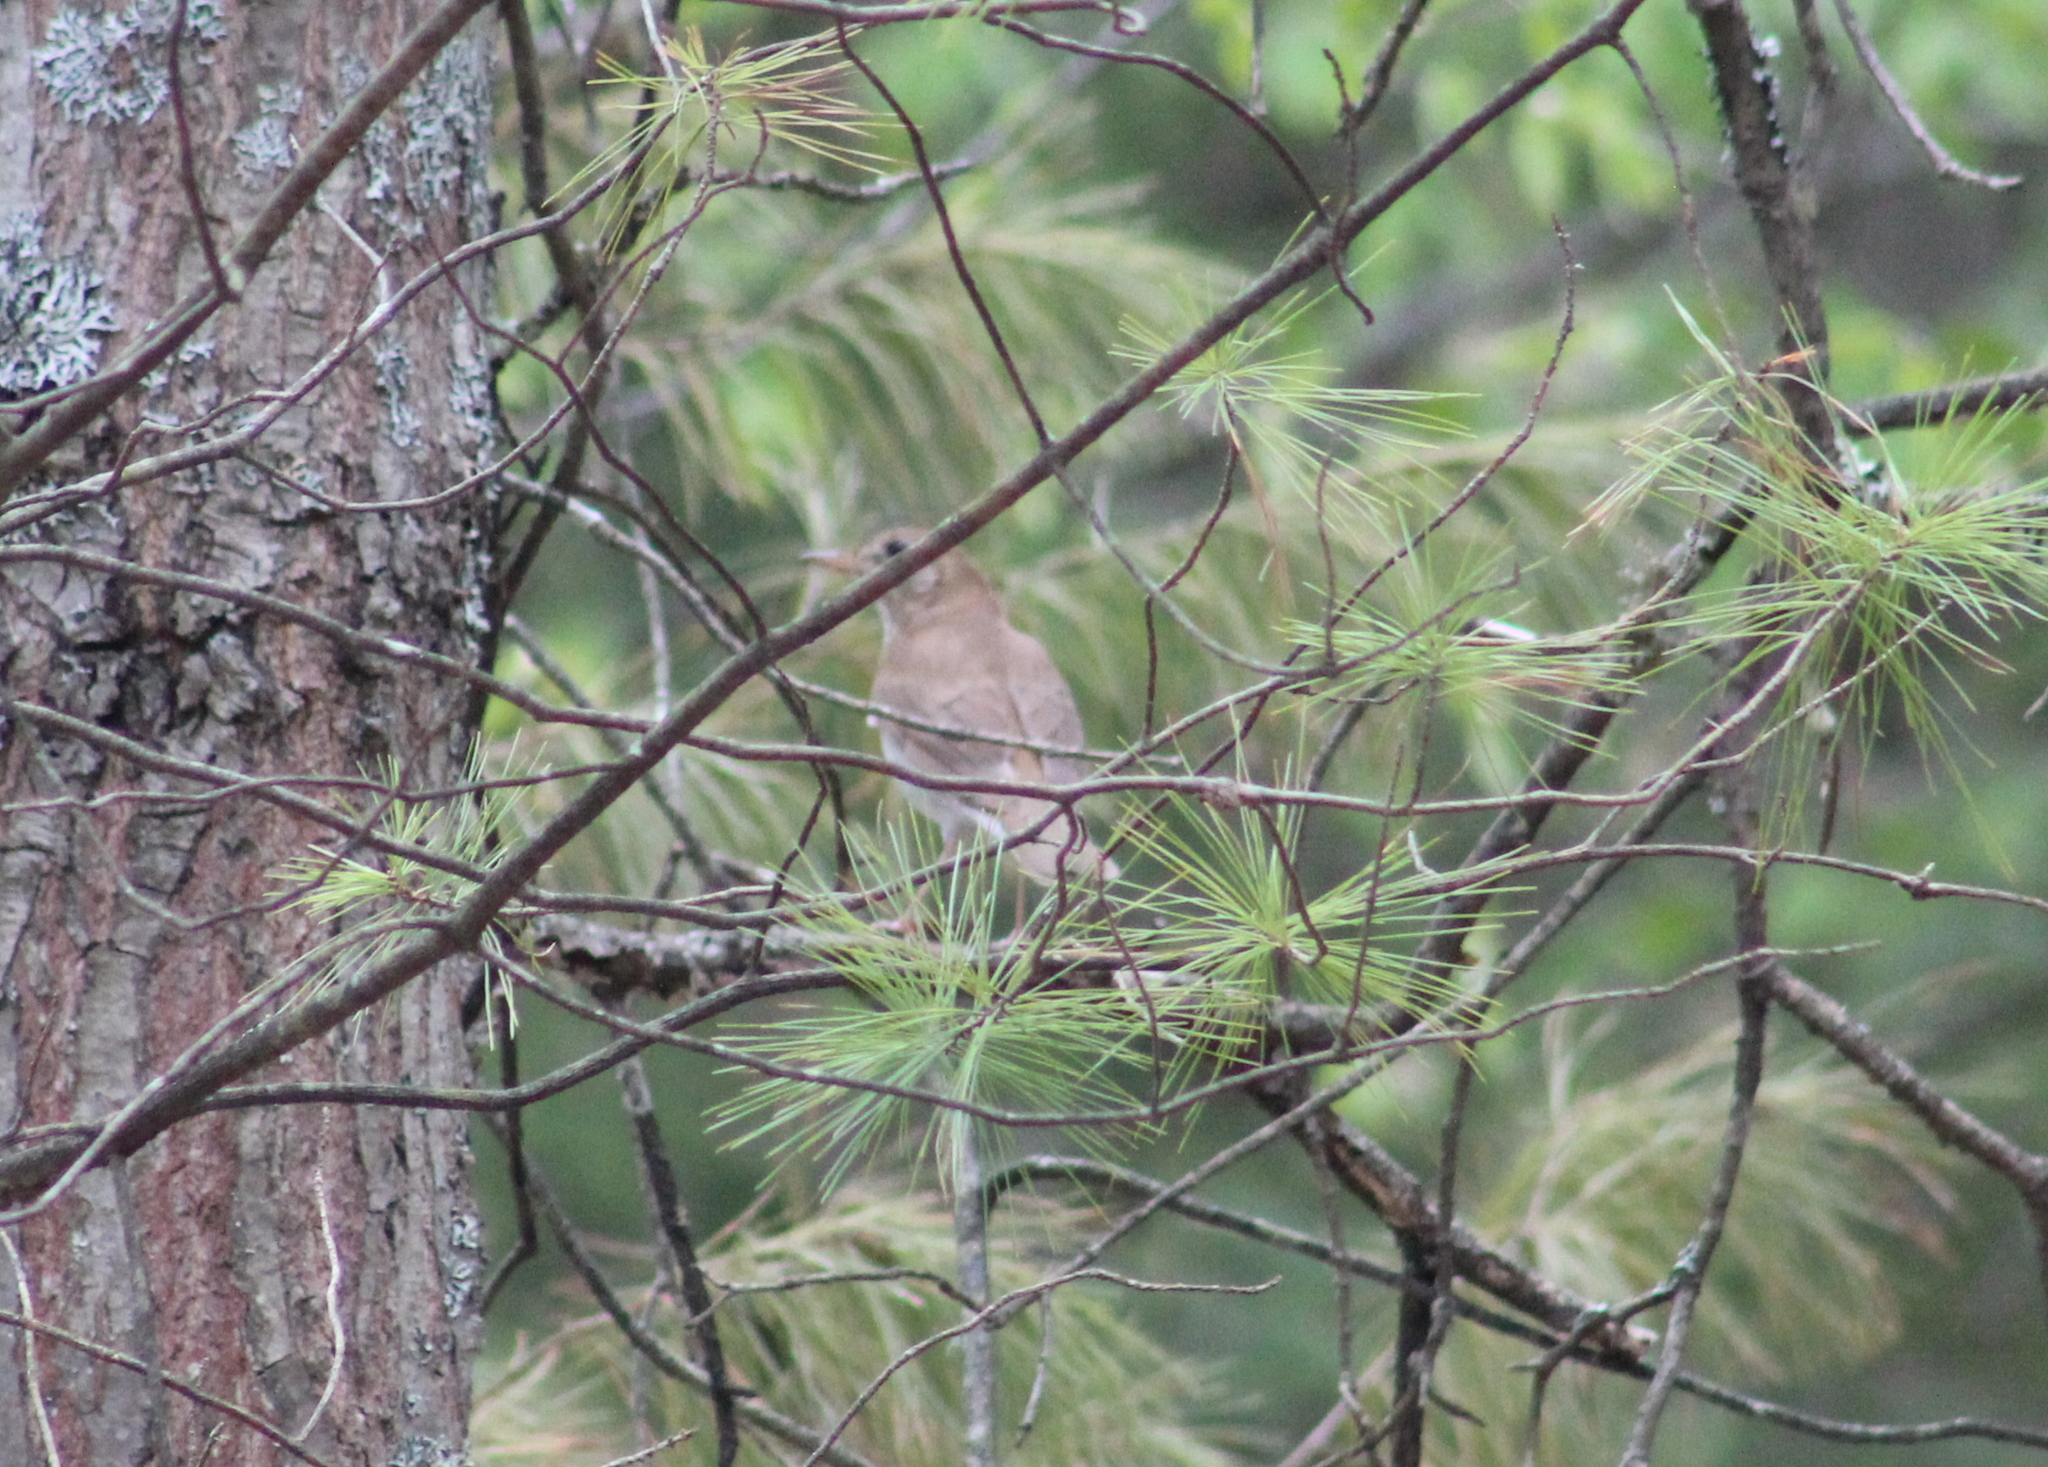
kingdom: Animalia
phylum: Chordata
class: Aves
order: Passeriformes
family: Turdidae
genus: Catharus
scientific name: Catharus fuscescens
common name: Veery
